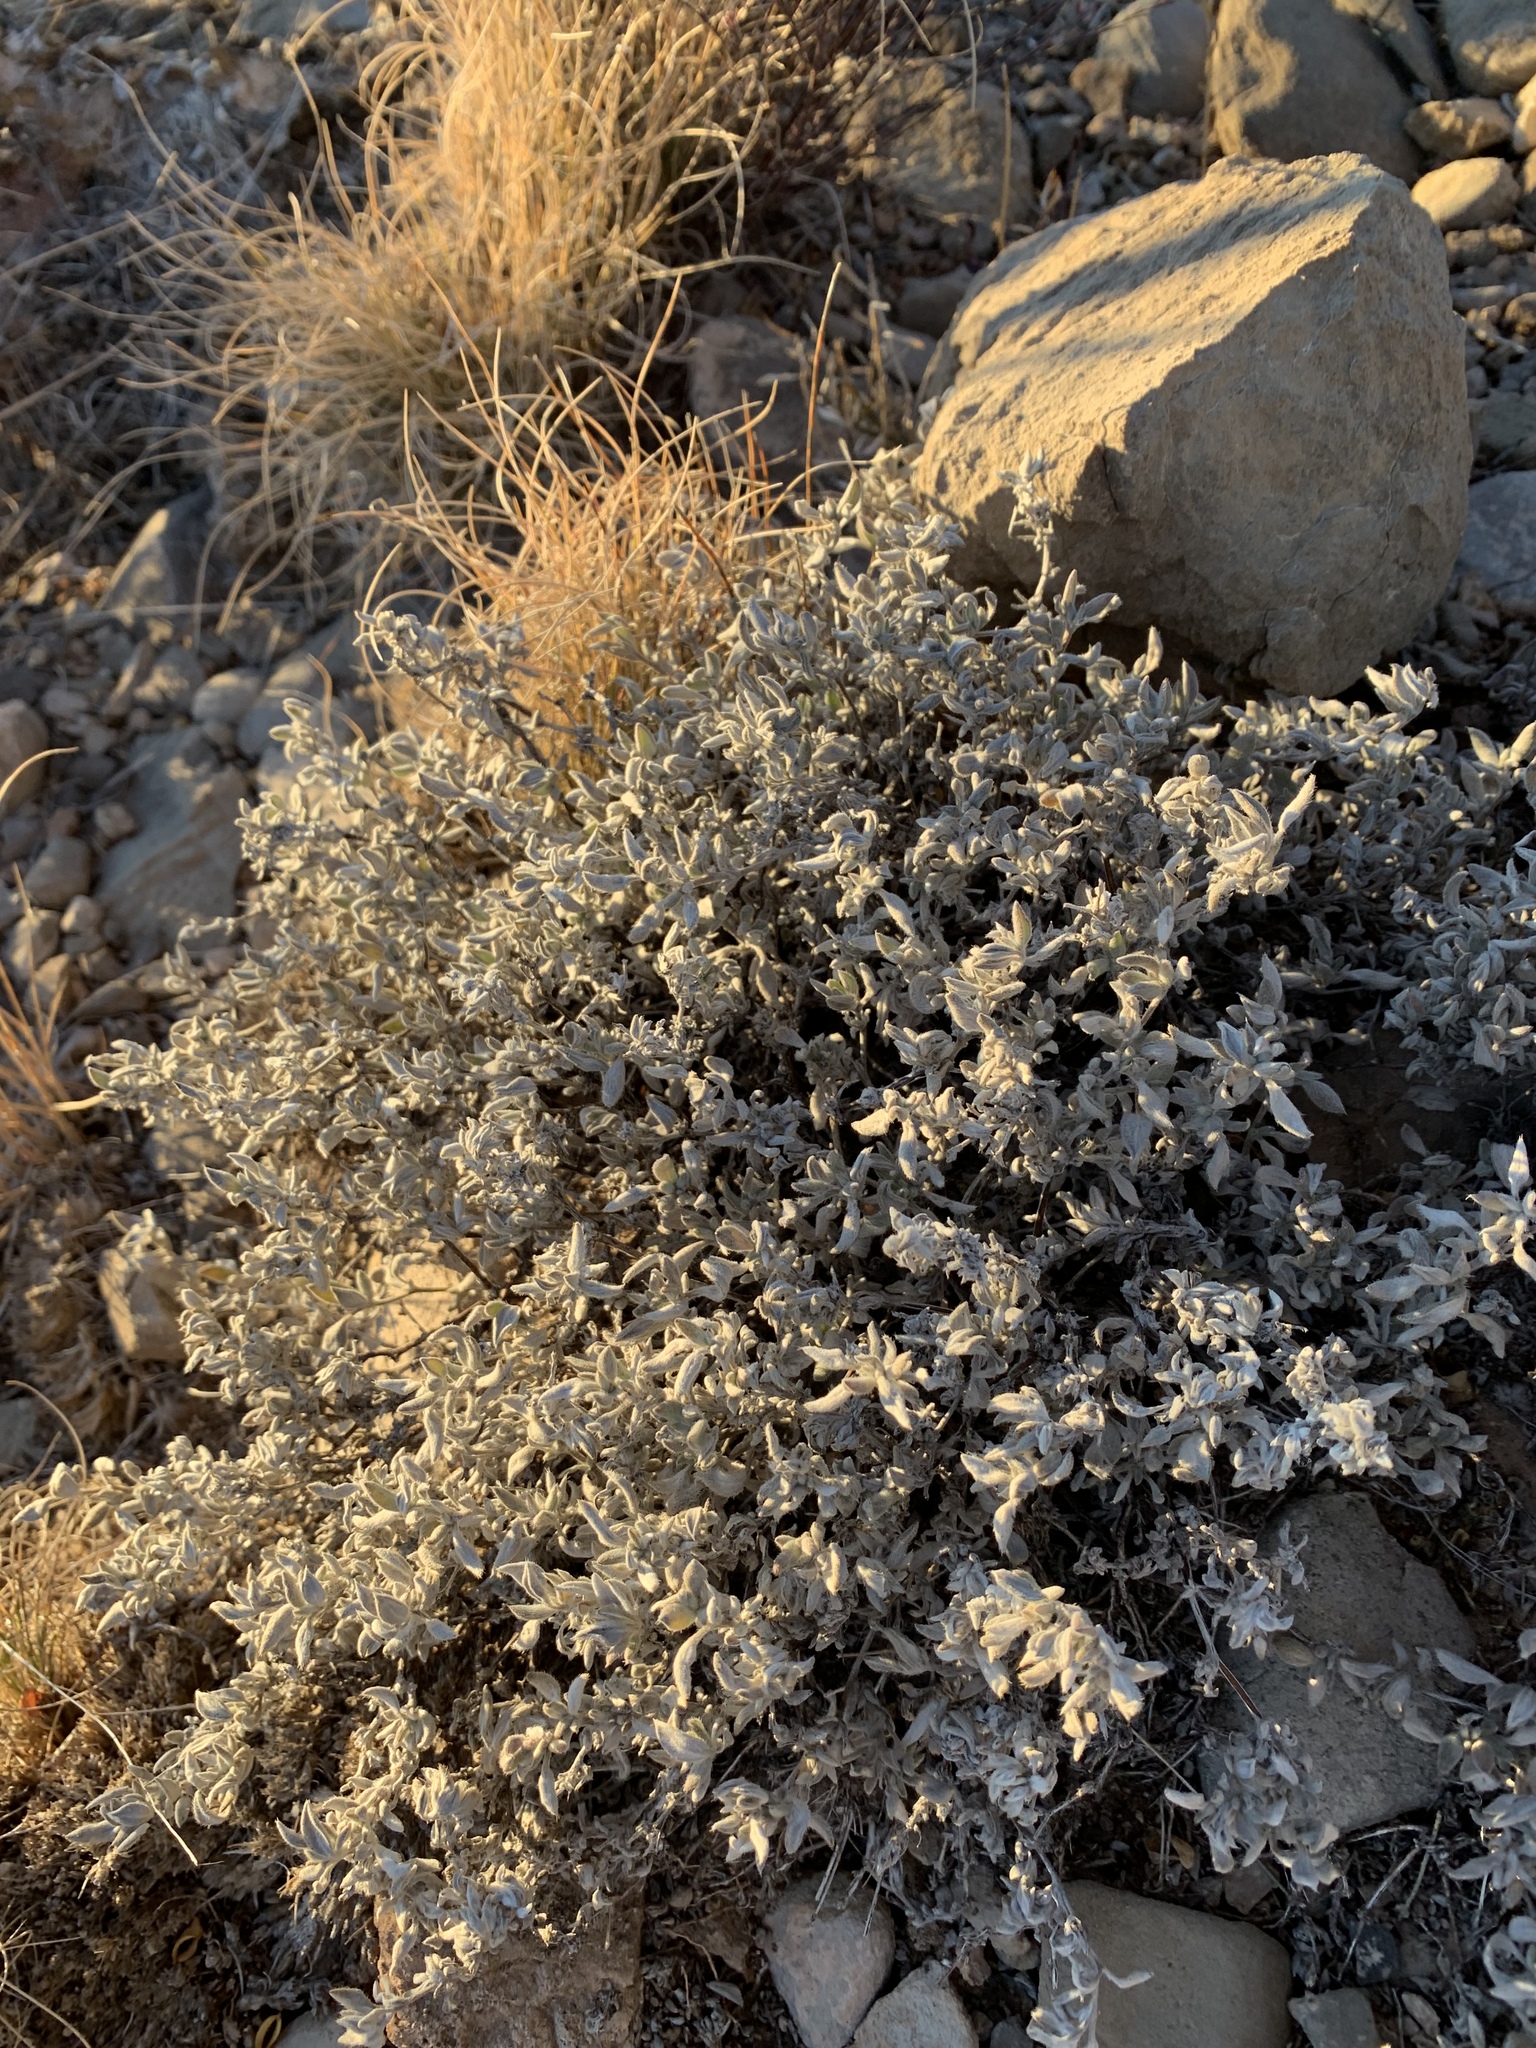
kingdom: Plantae
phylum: Tracheophyta
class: Magnoliopsida
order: Boraginales
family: Ehretiaceae
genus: Tiquilia
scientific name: Tiquilia canescens
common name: Hairy tiquilia
